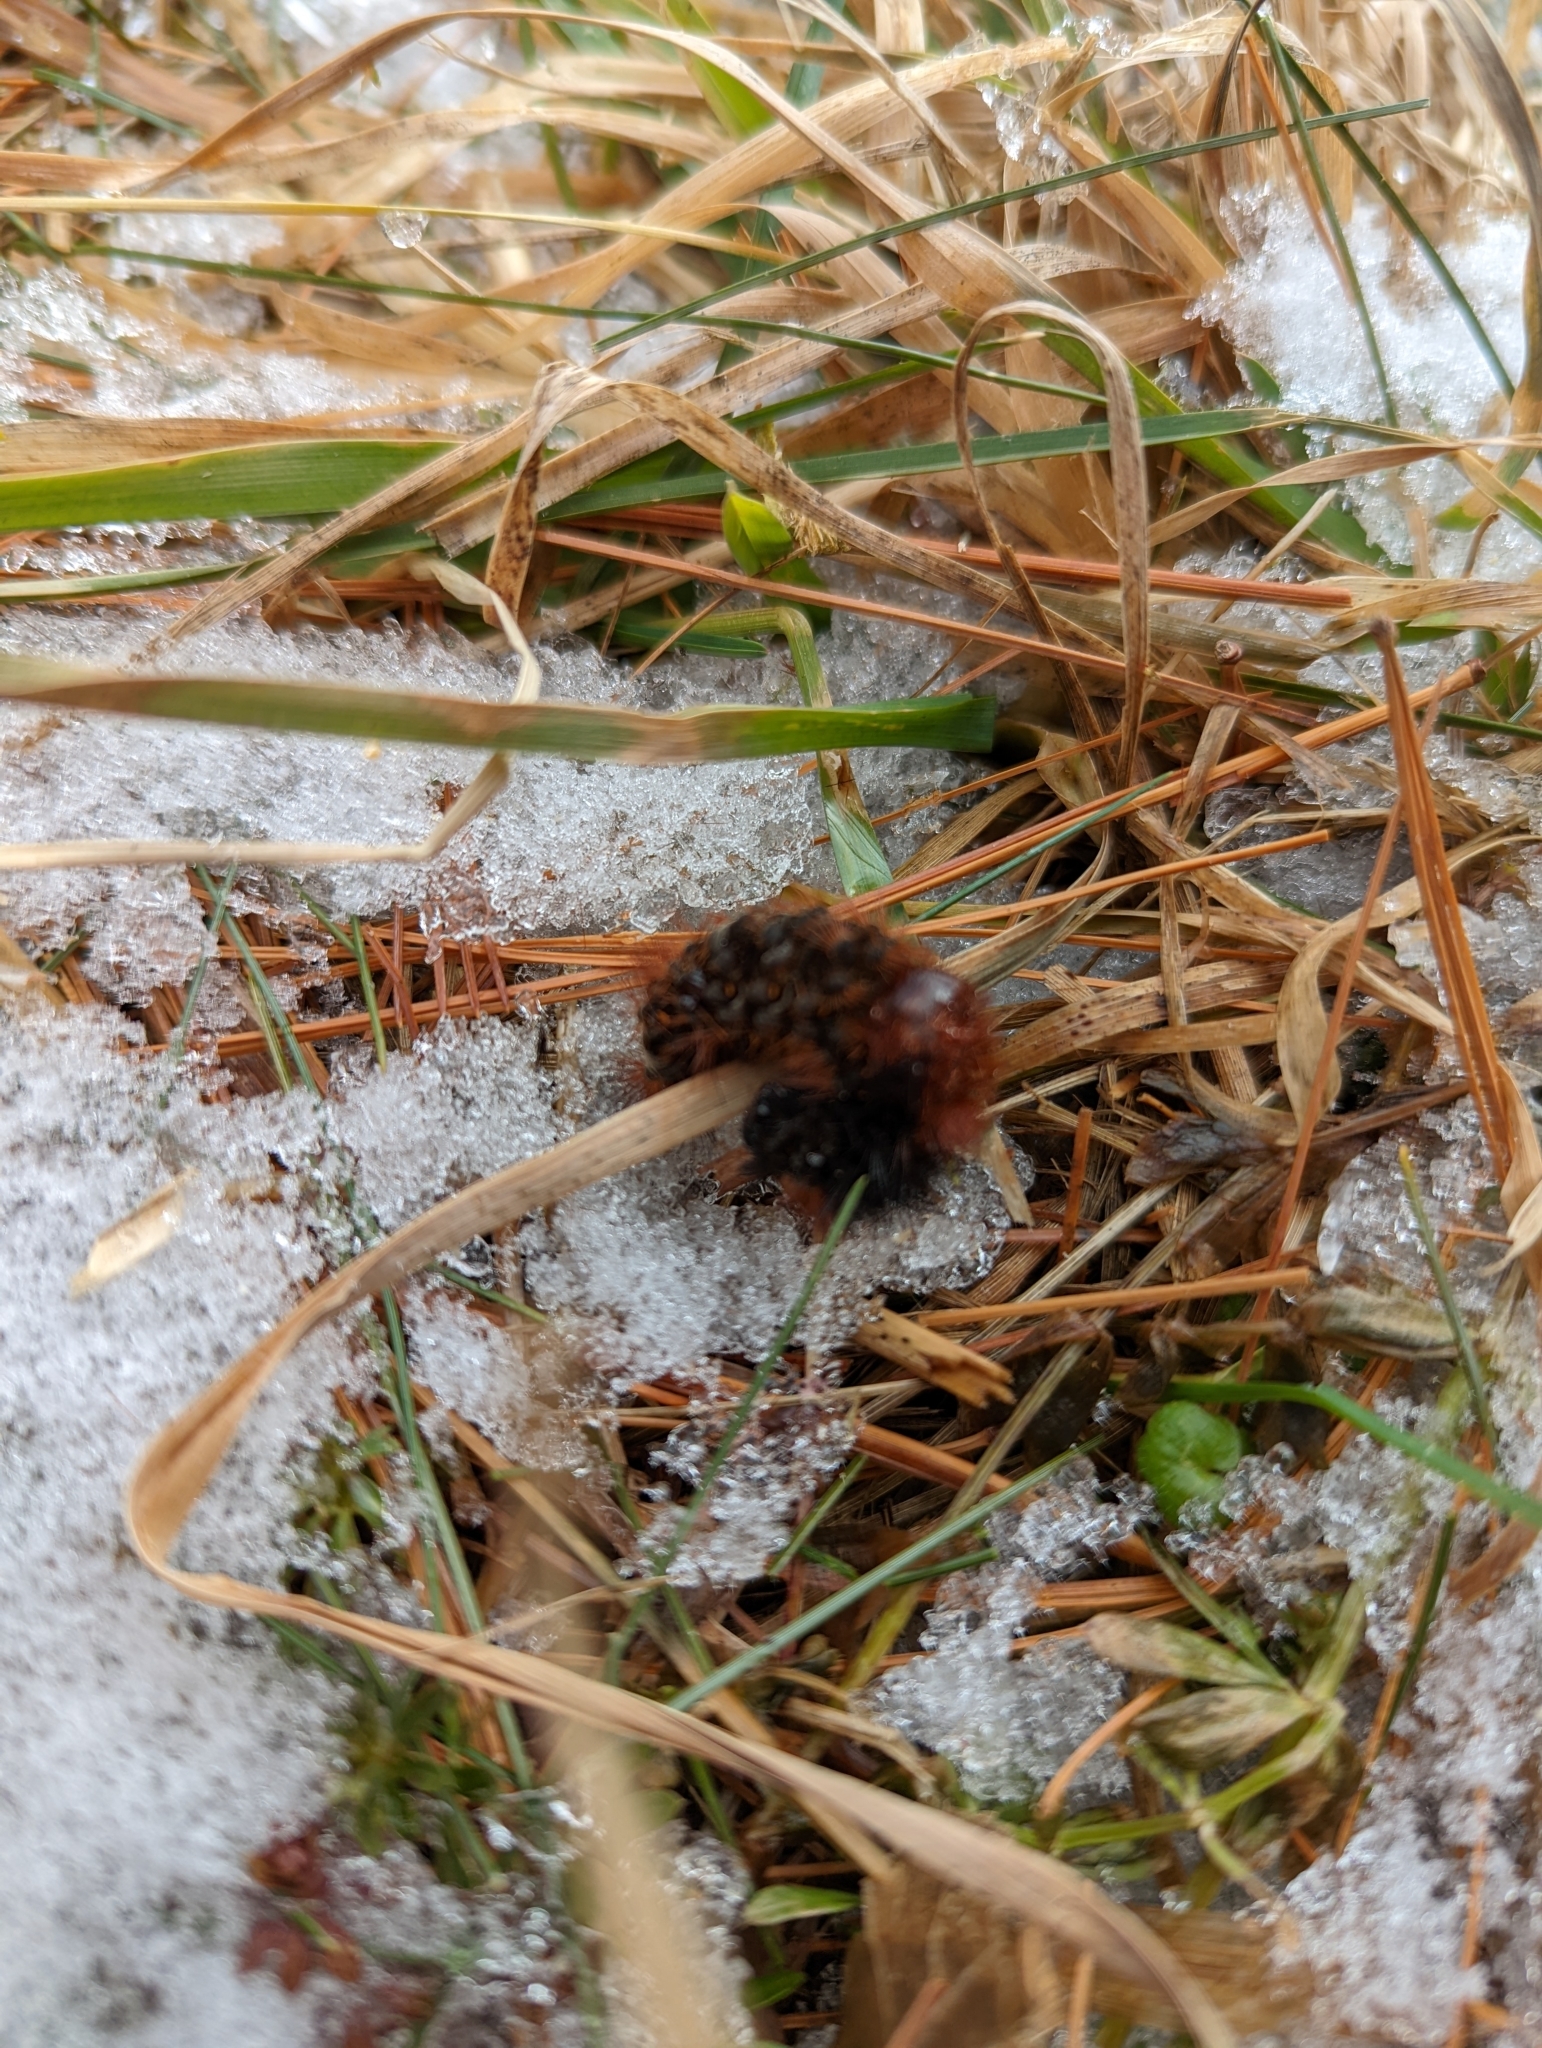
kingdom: Animalia
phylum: Arthropoda
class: Insecta
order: Lepidoptera
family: Erebidae
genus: Pyrrharctia
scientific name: Pyrrharctia isabella
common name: Isabella tiger moth
